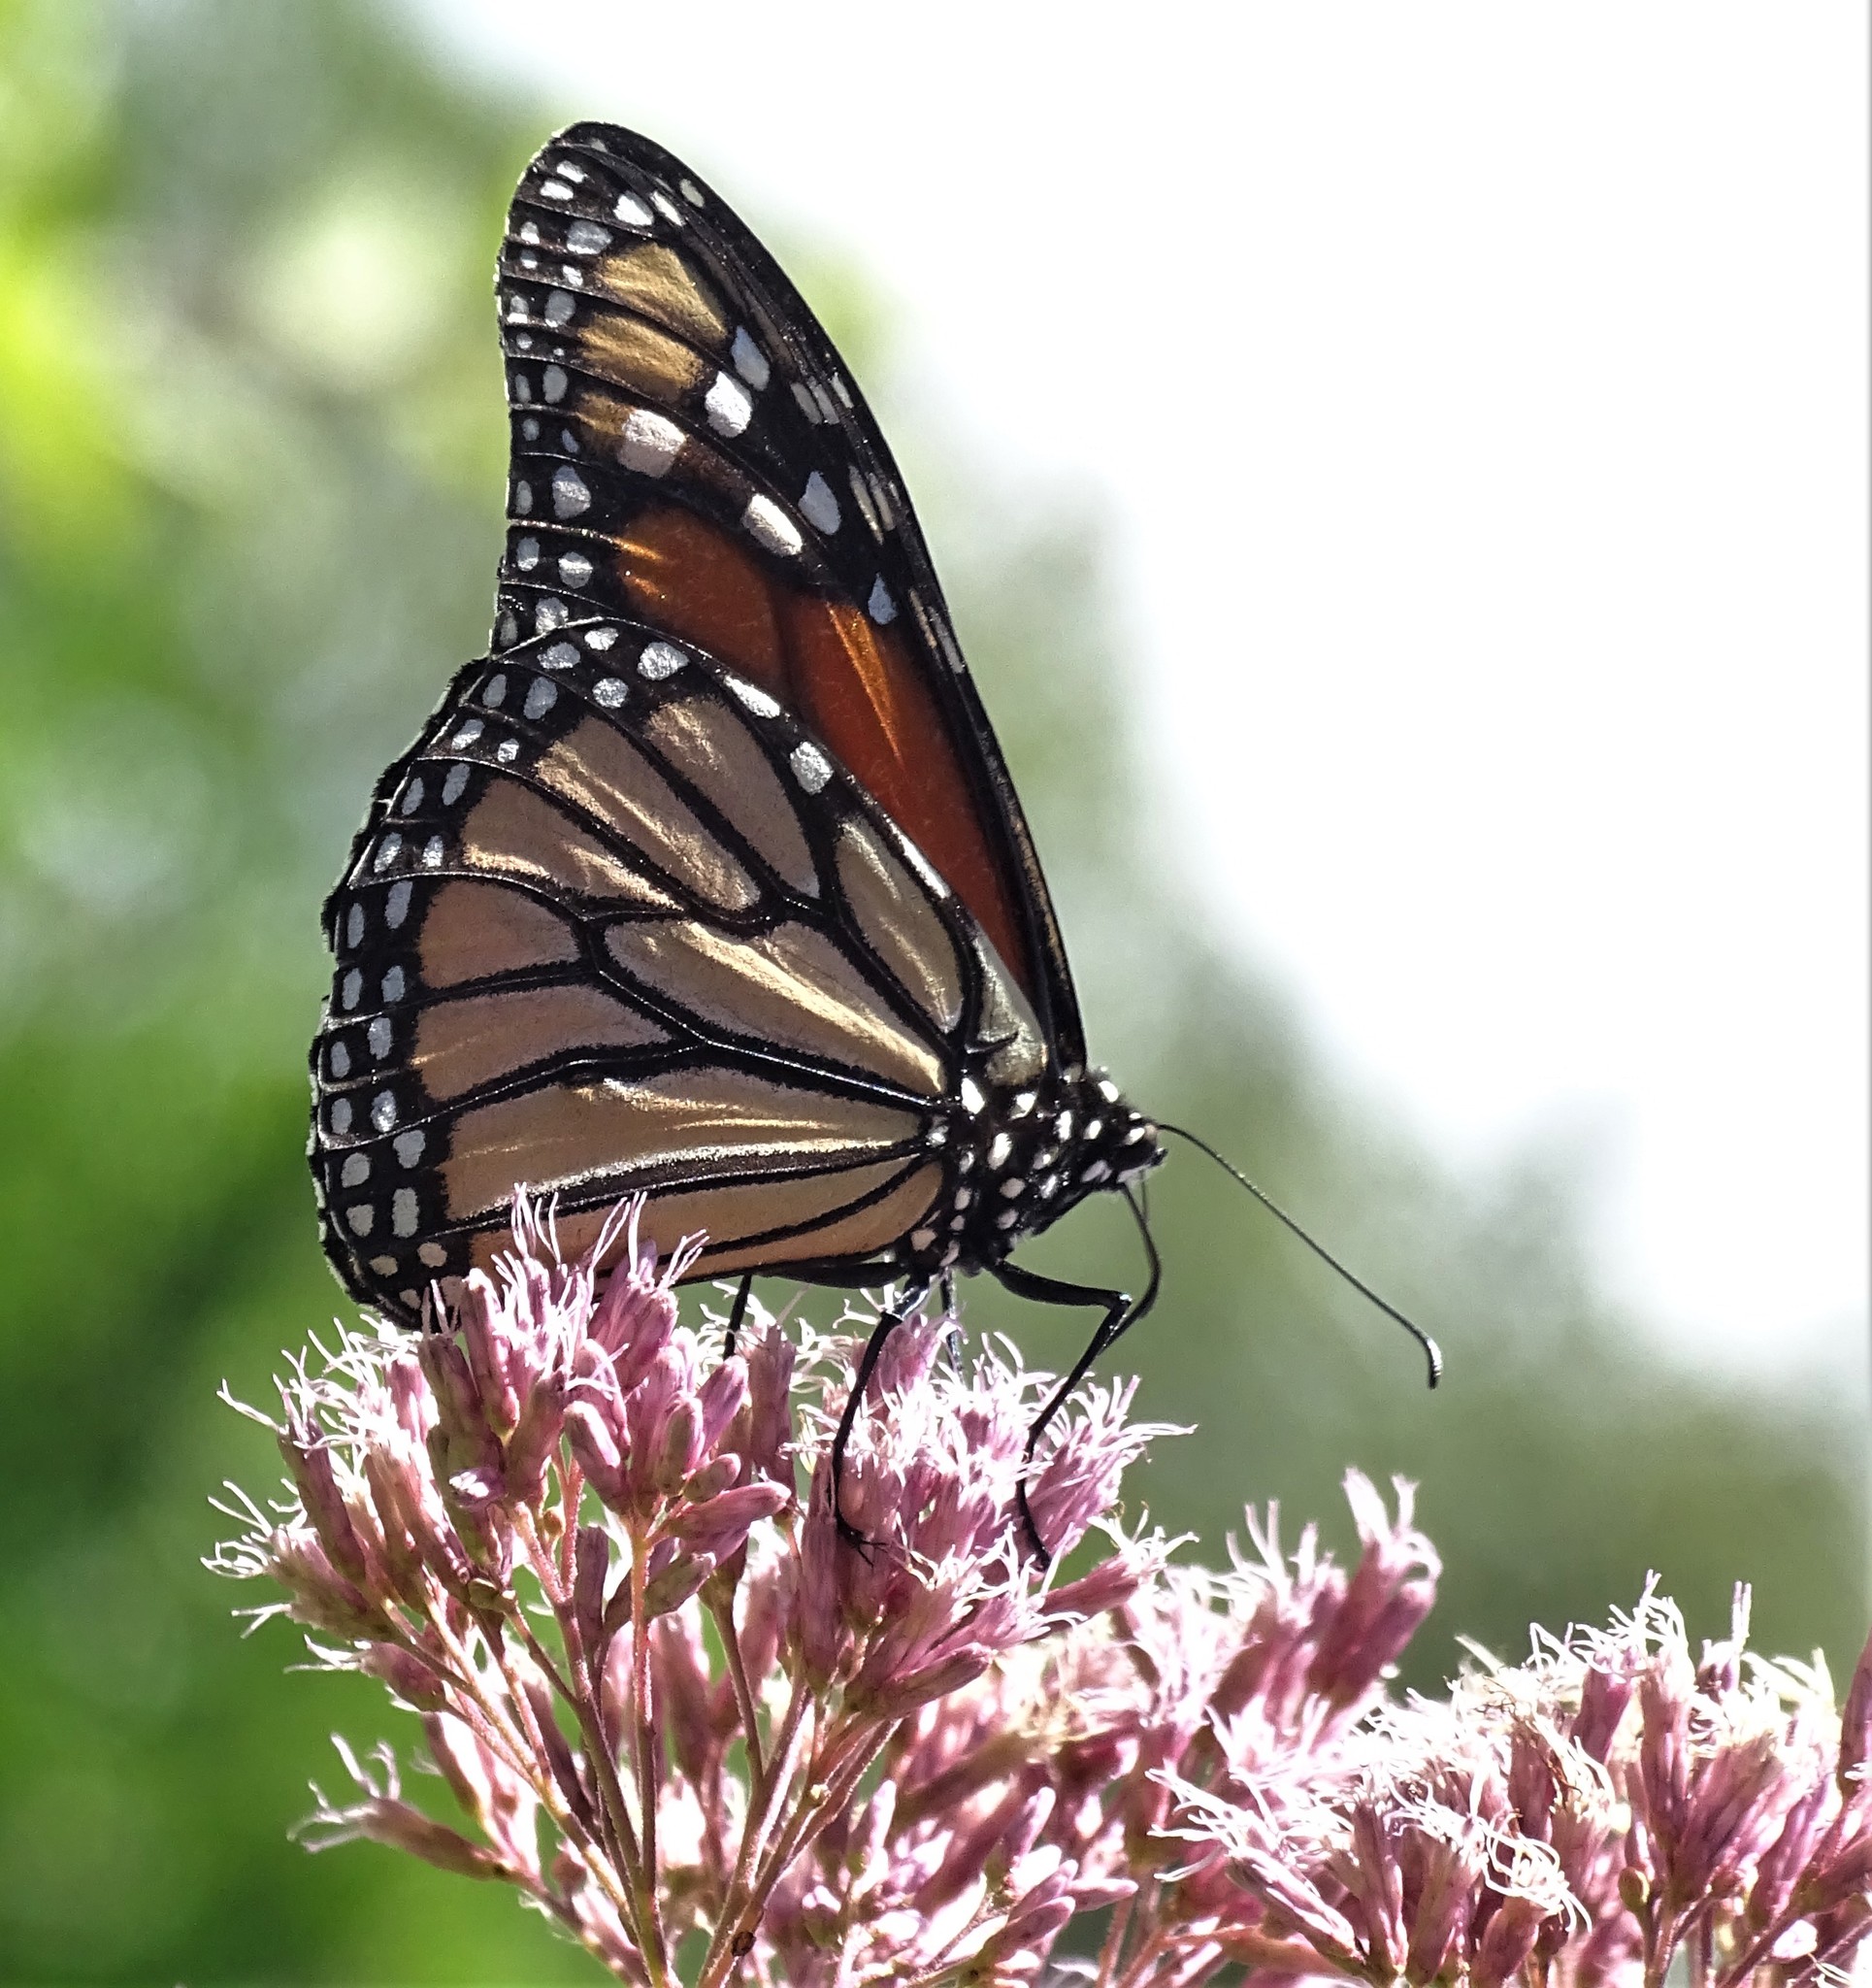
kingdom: Animalia
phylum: Arthropoda
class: Insecta
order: Lepidoptera
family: Nymphalidae
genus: Danaus
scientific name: Danaus plexippus
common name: Monarch
